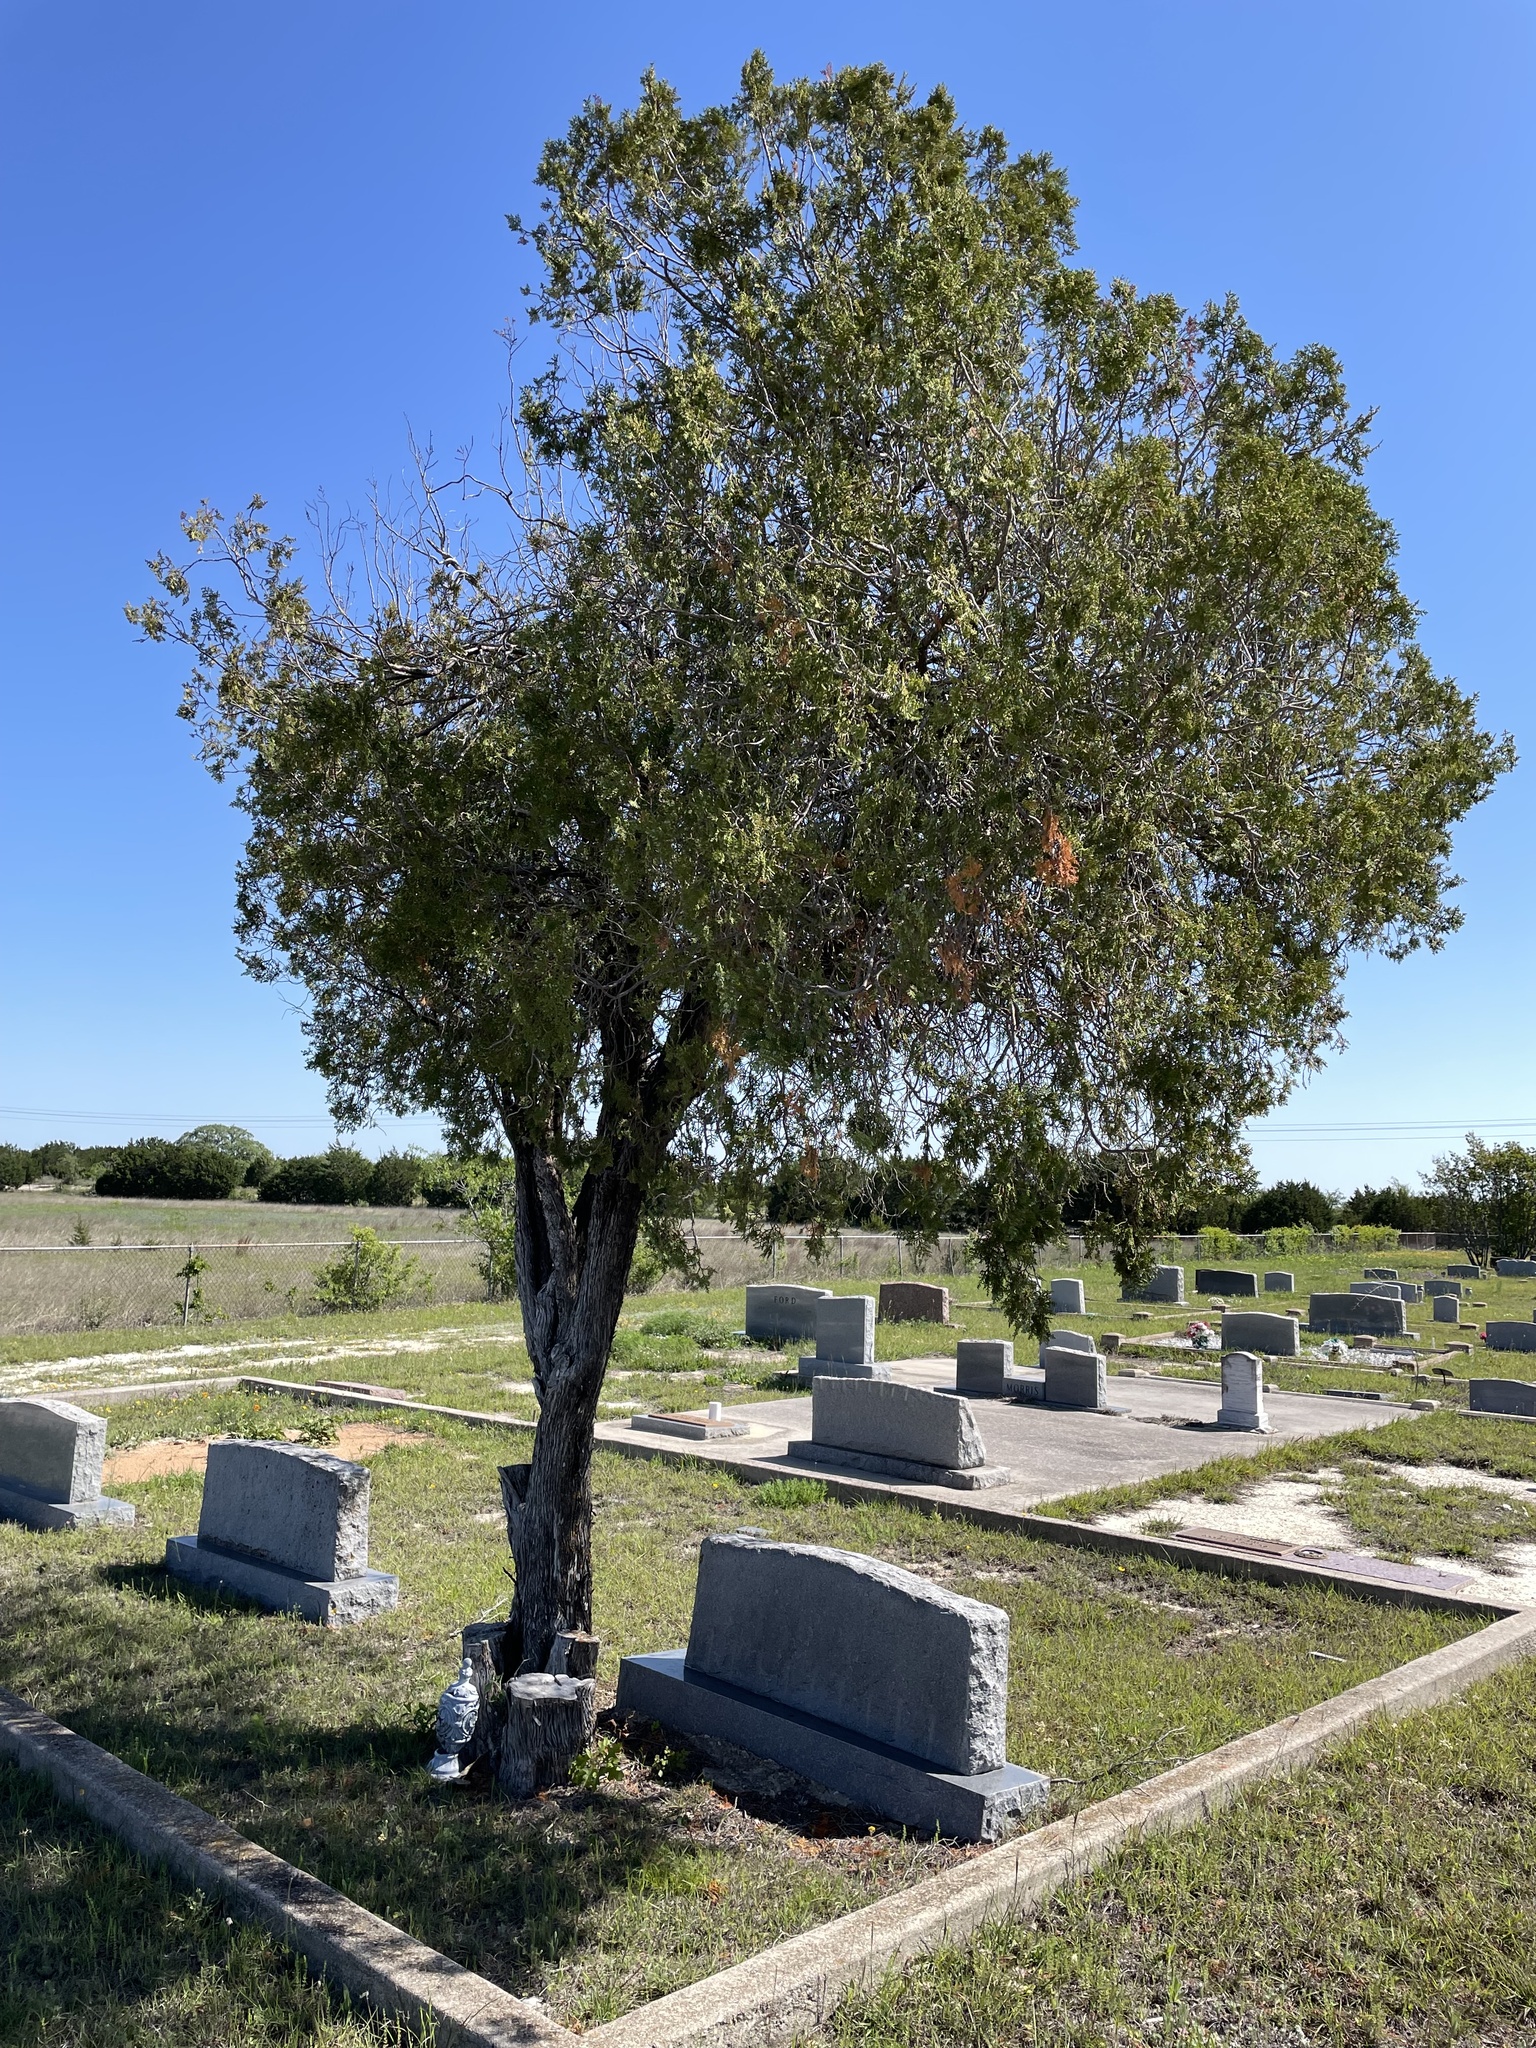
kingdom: Plantae
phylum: Tracheophyta
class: Pinopsida
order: Pinales
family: Cupressaceae
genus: Platycladus
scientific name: Platycladus orientalis
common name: Chinese thuja
